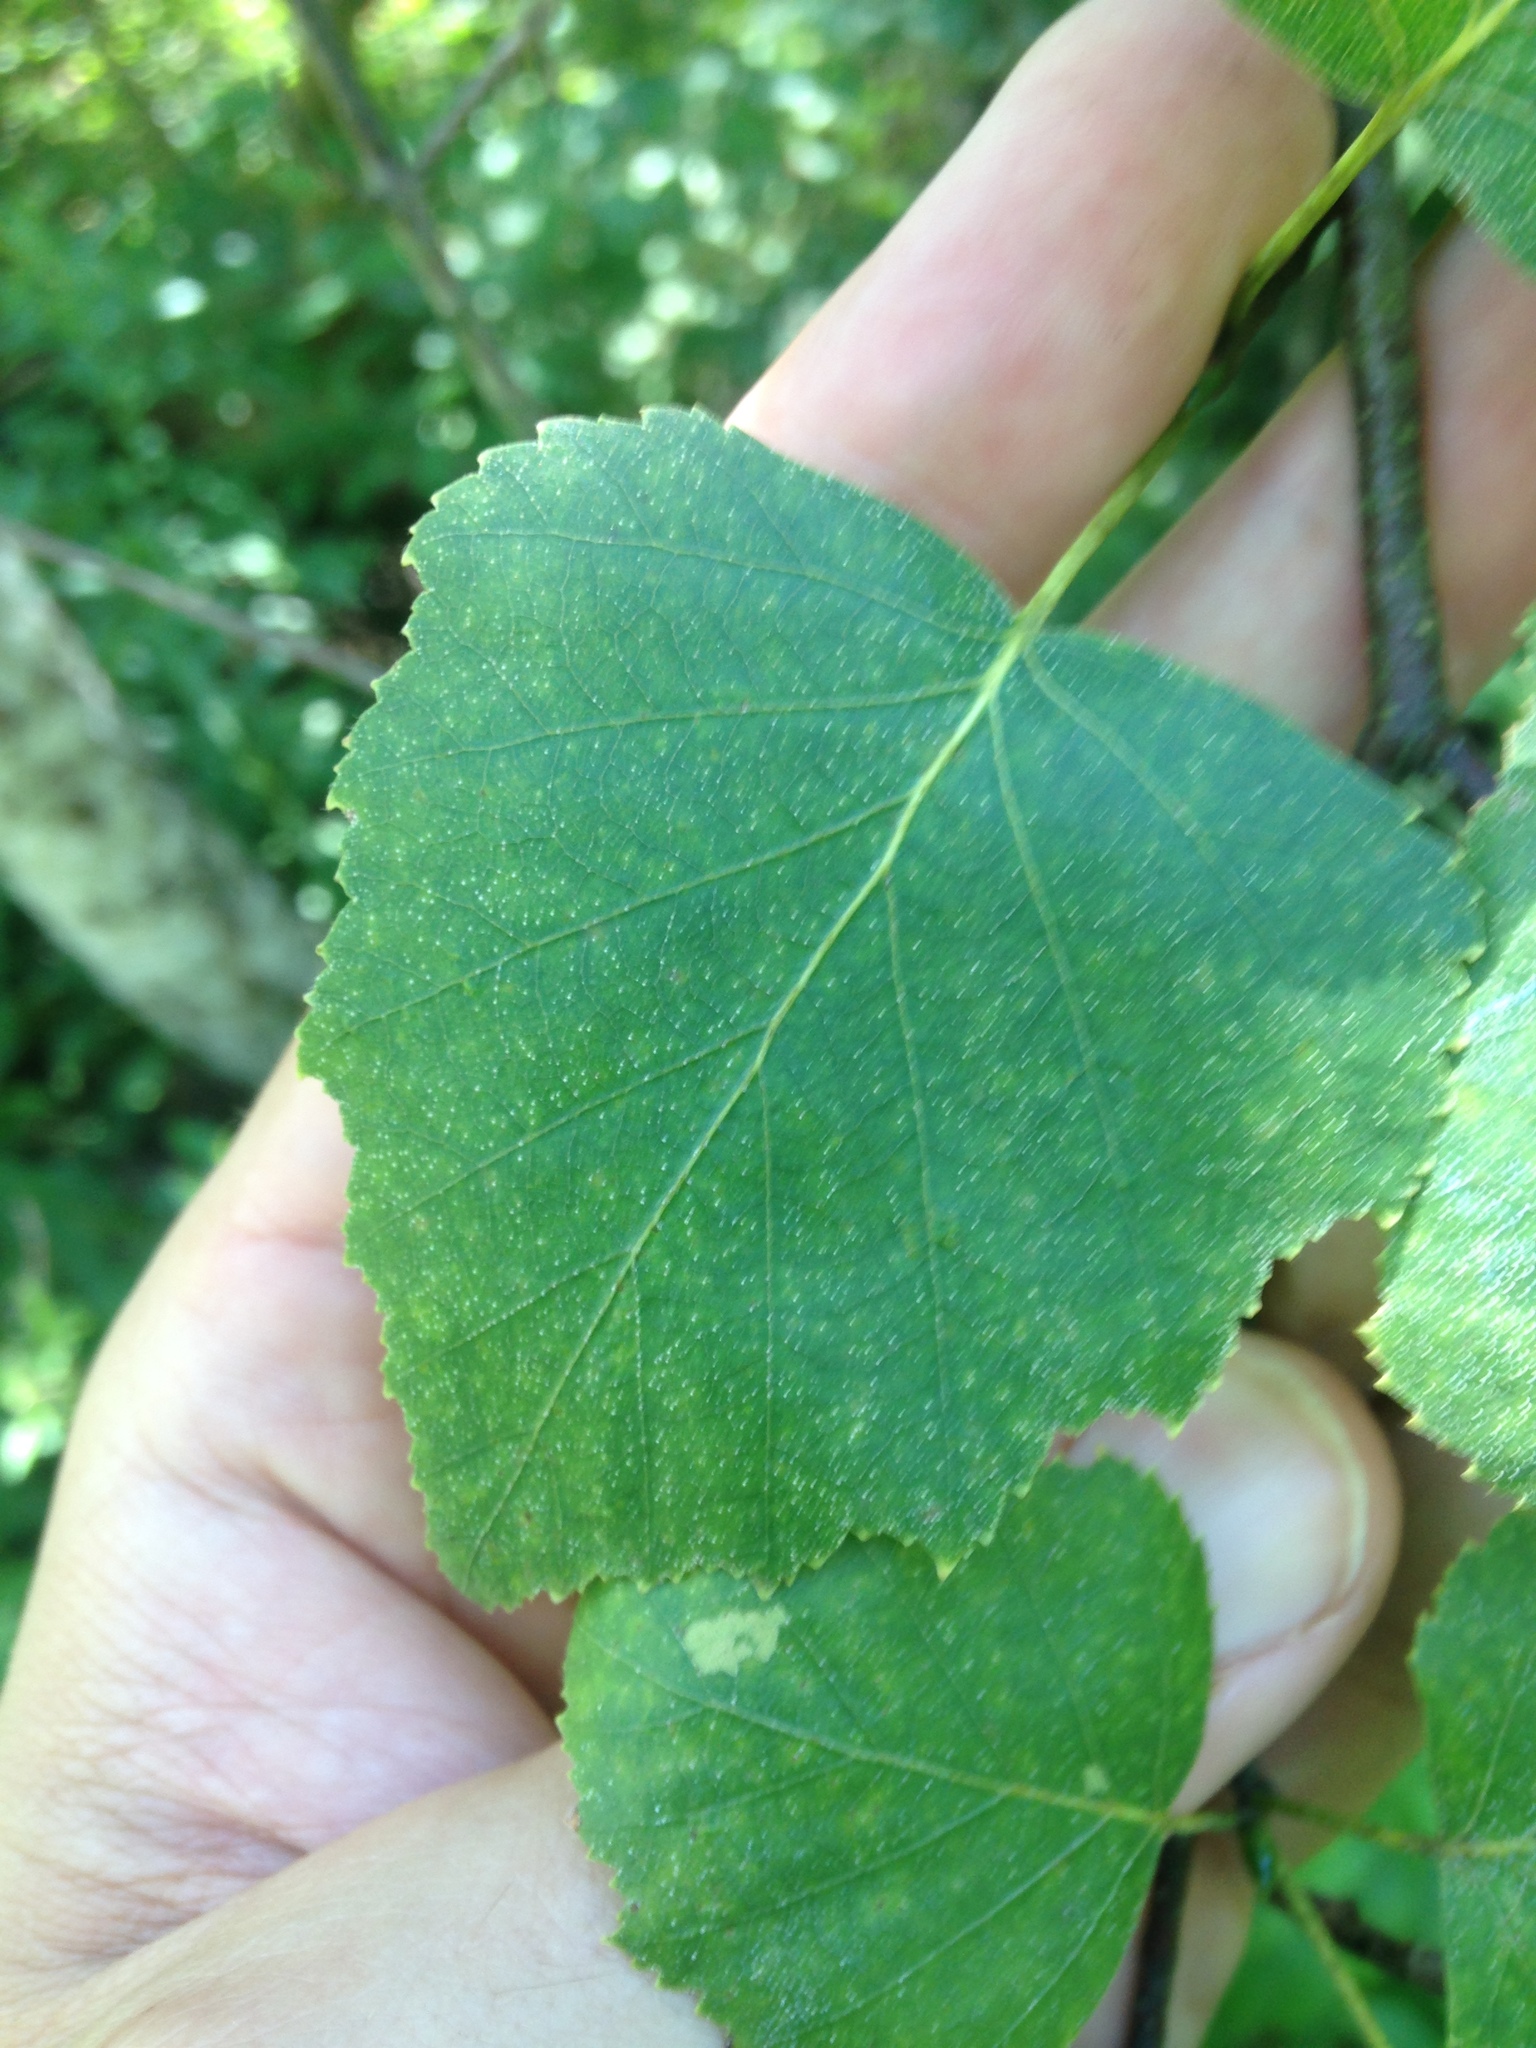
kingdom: Plantae
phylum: Tracheophyta
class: Magnoliopsida
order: Fagales
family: Betulaceae
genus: Betula
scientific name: Betula populifolia
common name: Fire birch
